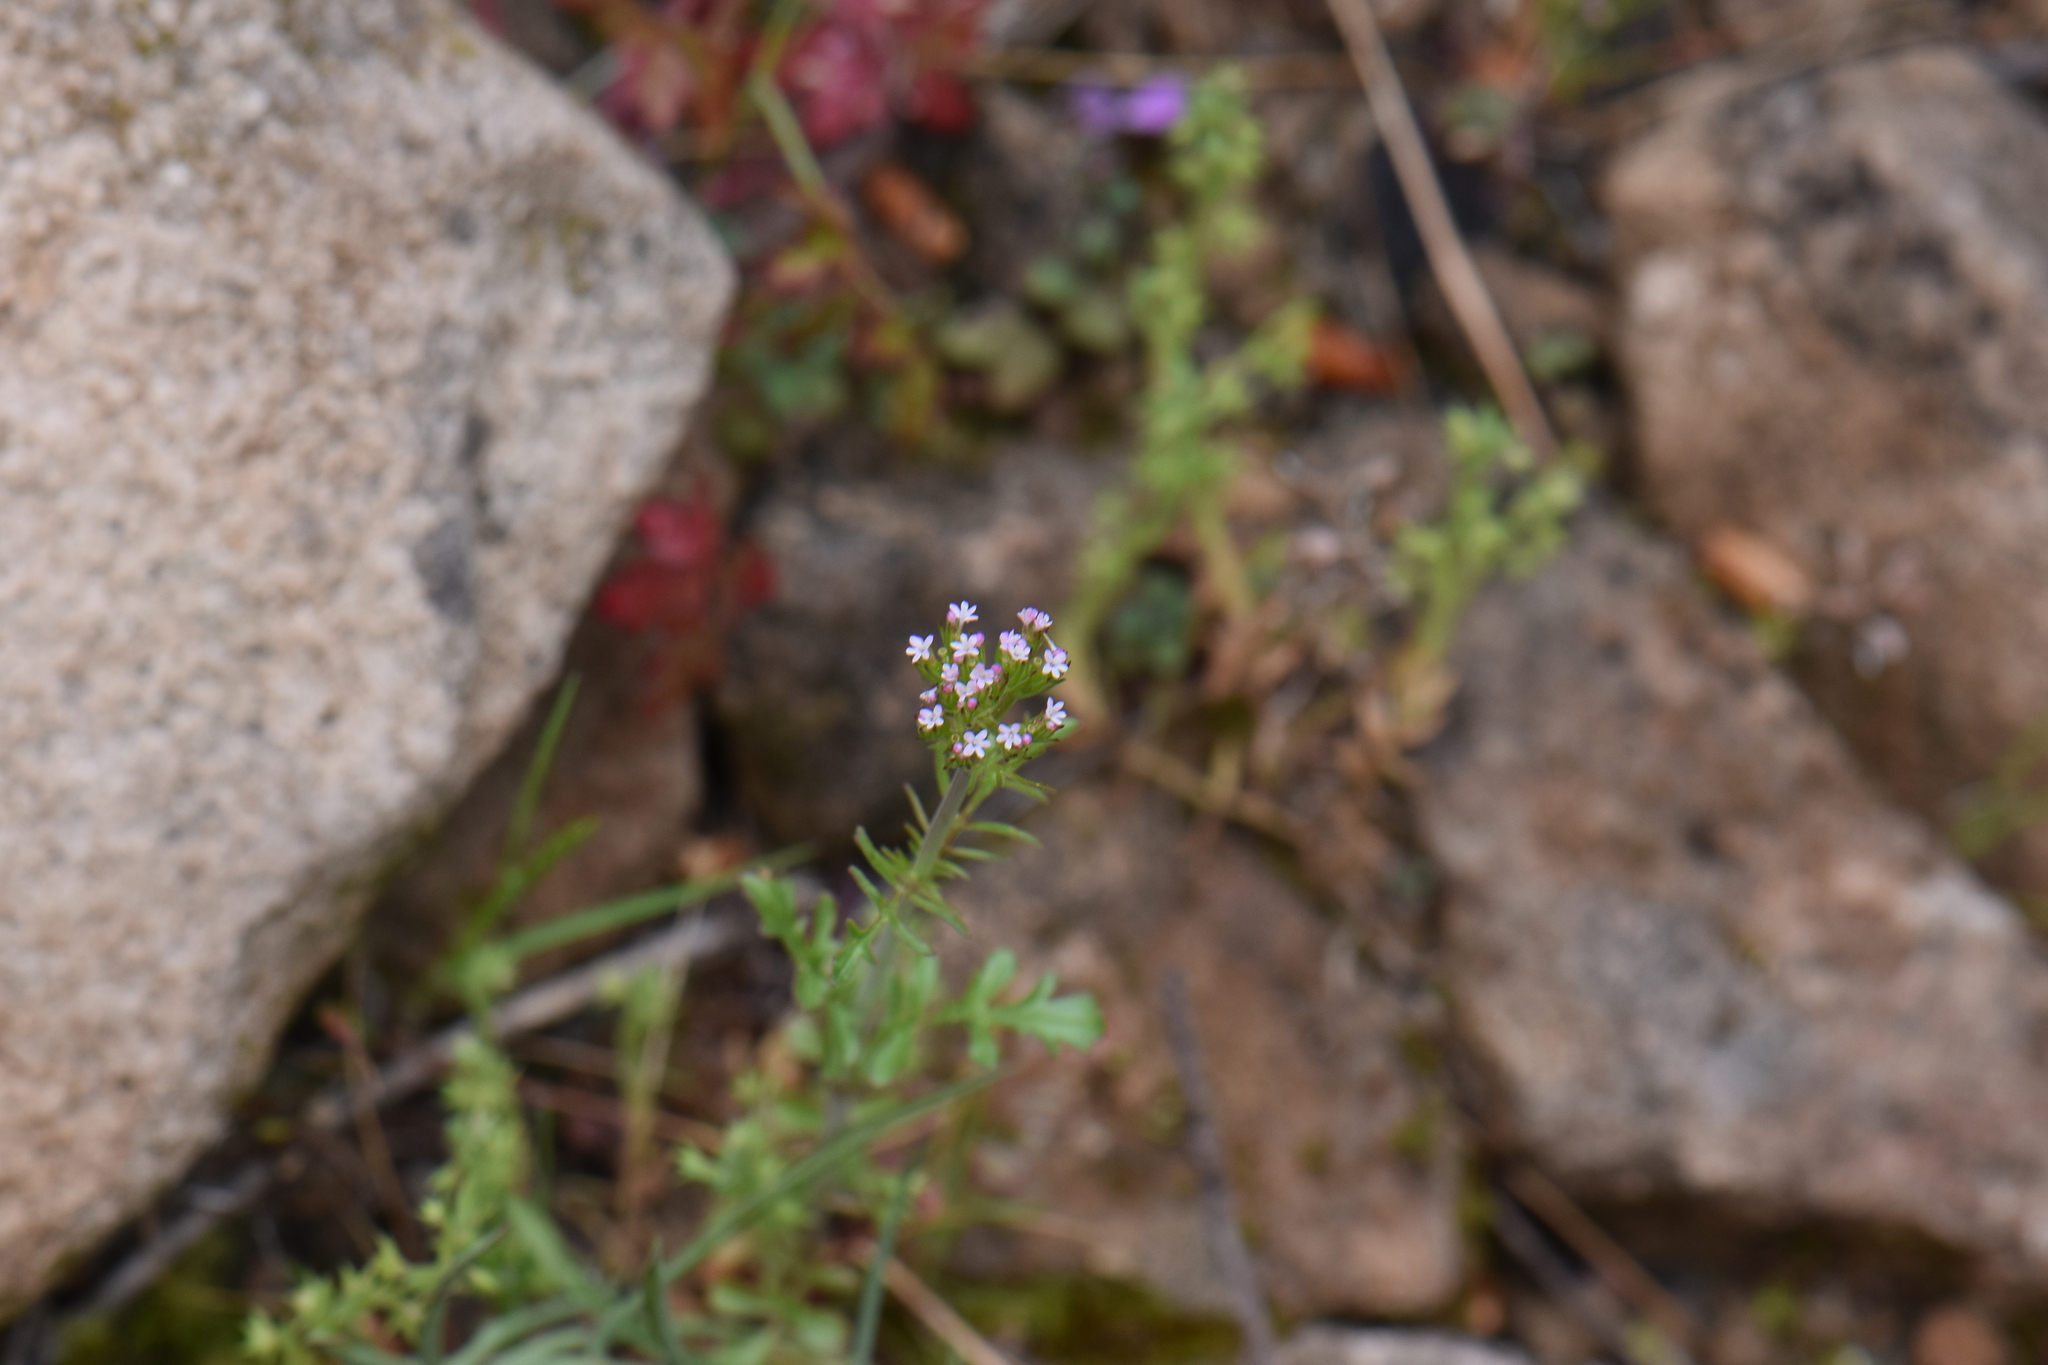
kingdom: Plantae
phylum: Tracheophyta
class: Magnoliopsida
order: Dipsacales
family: Caprifoliaceae
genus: Centranthus
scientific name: Centranthus calcitrapae
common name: Annual valerian
